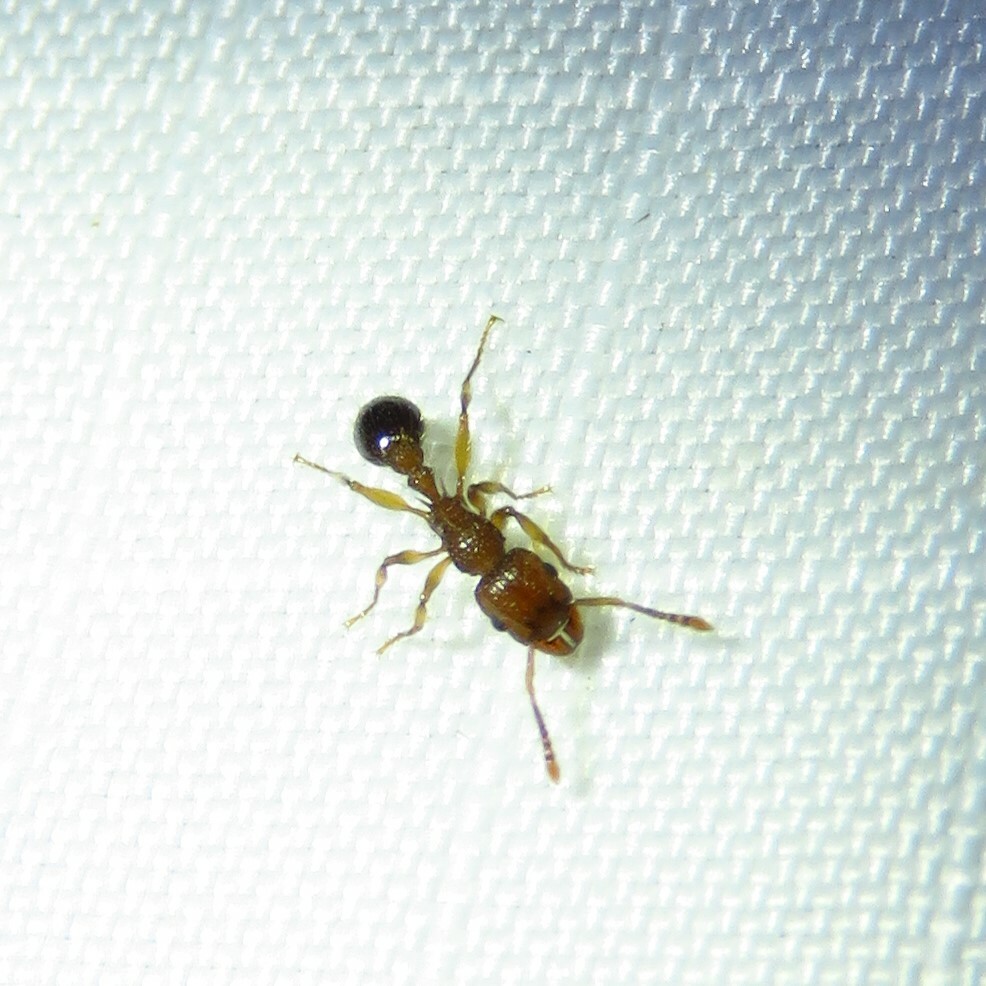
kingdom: Animalia
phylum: Arthropoda
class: Insecta
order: Hymenoptera
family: Formicidae
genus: Tetramorium
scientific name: Tetramorium bicarinatum
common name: Guinea ant
